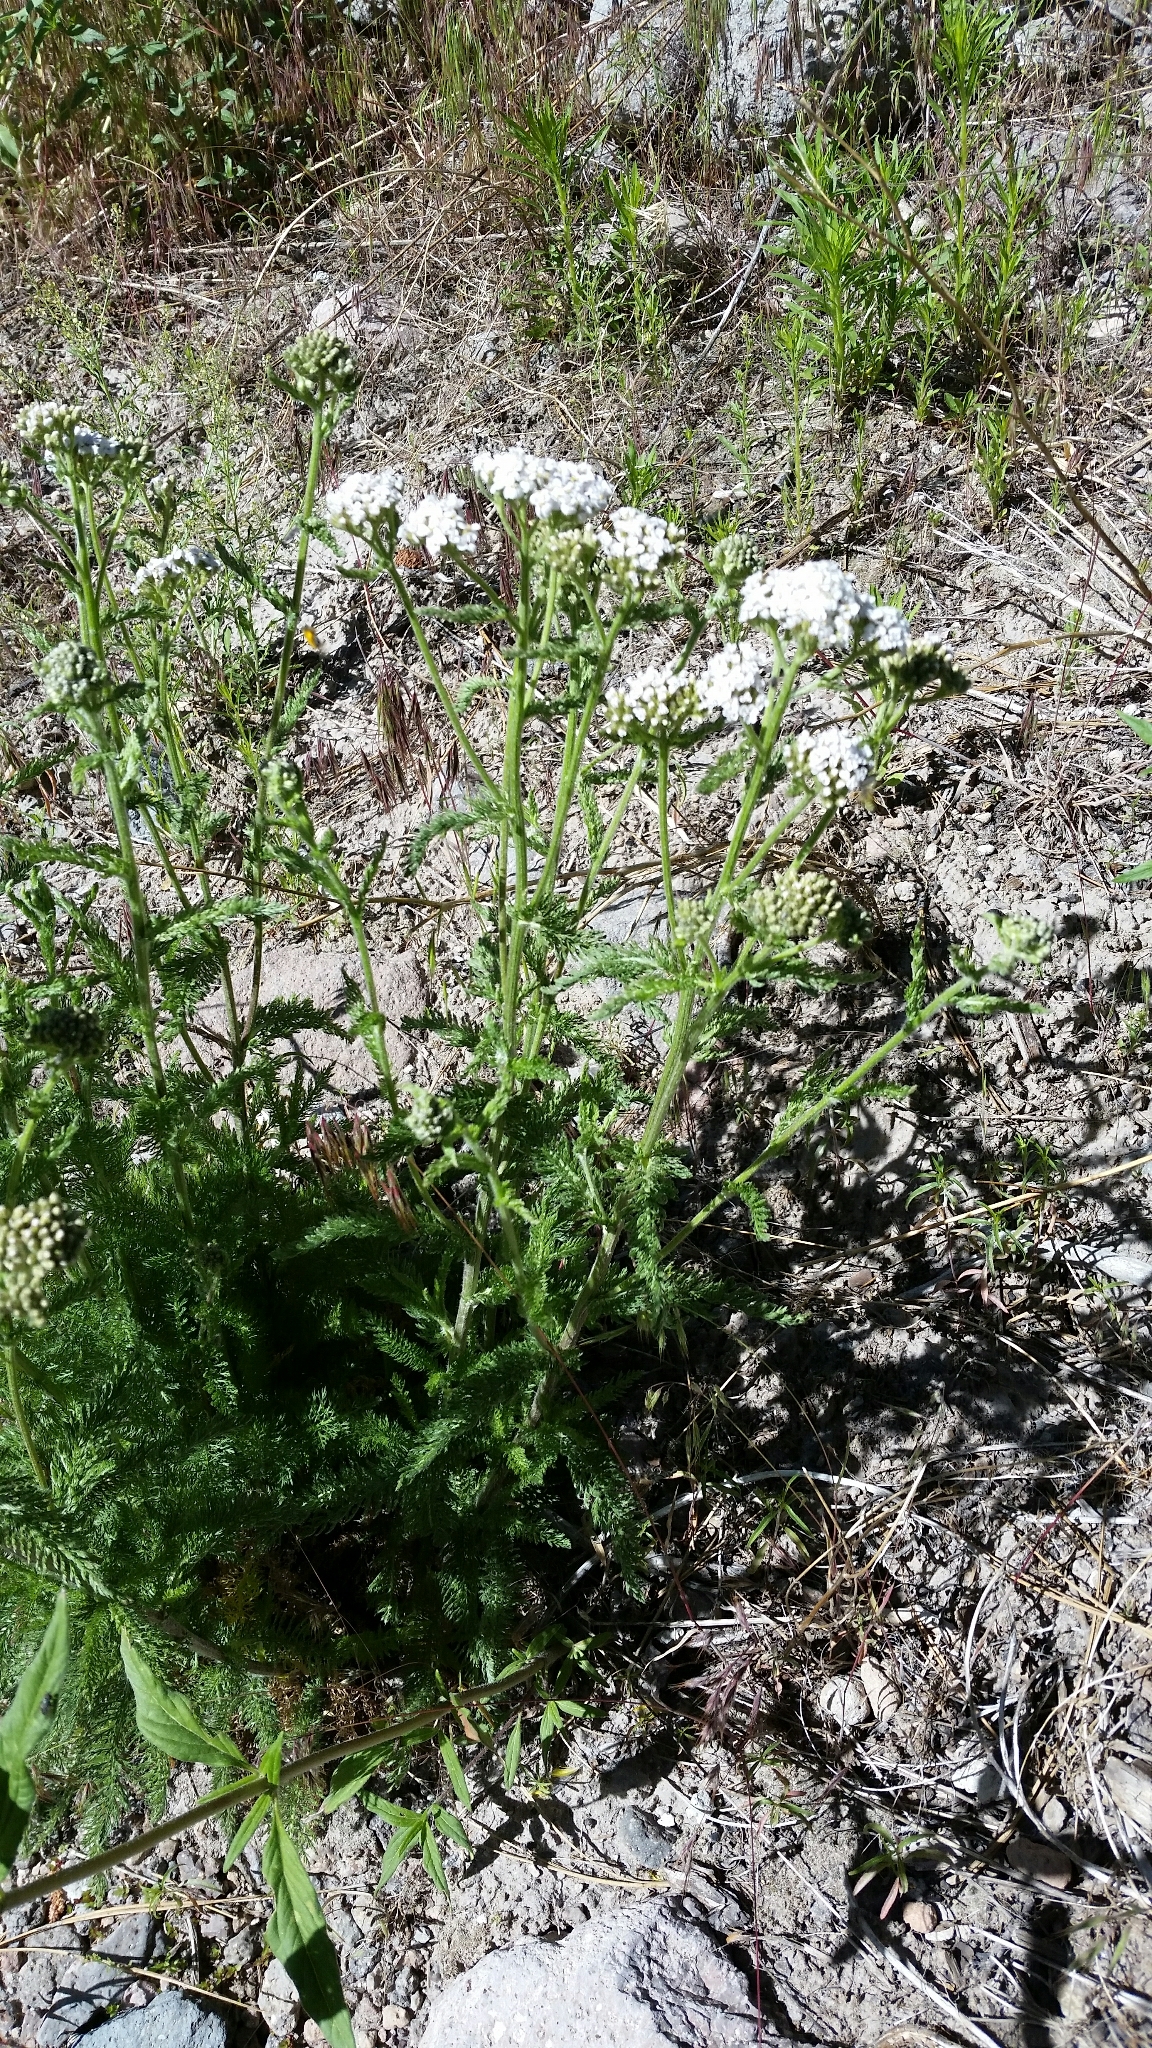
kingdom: Plantae
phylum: Tracheophyta
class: Magnoliopsida
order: Asterales
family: Asteraceae
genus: Achillea
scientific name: Achillea millefolium
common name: Yarrow
